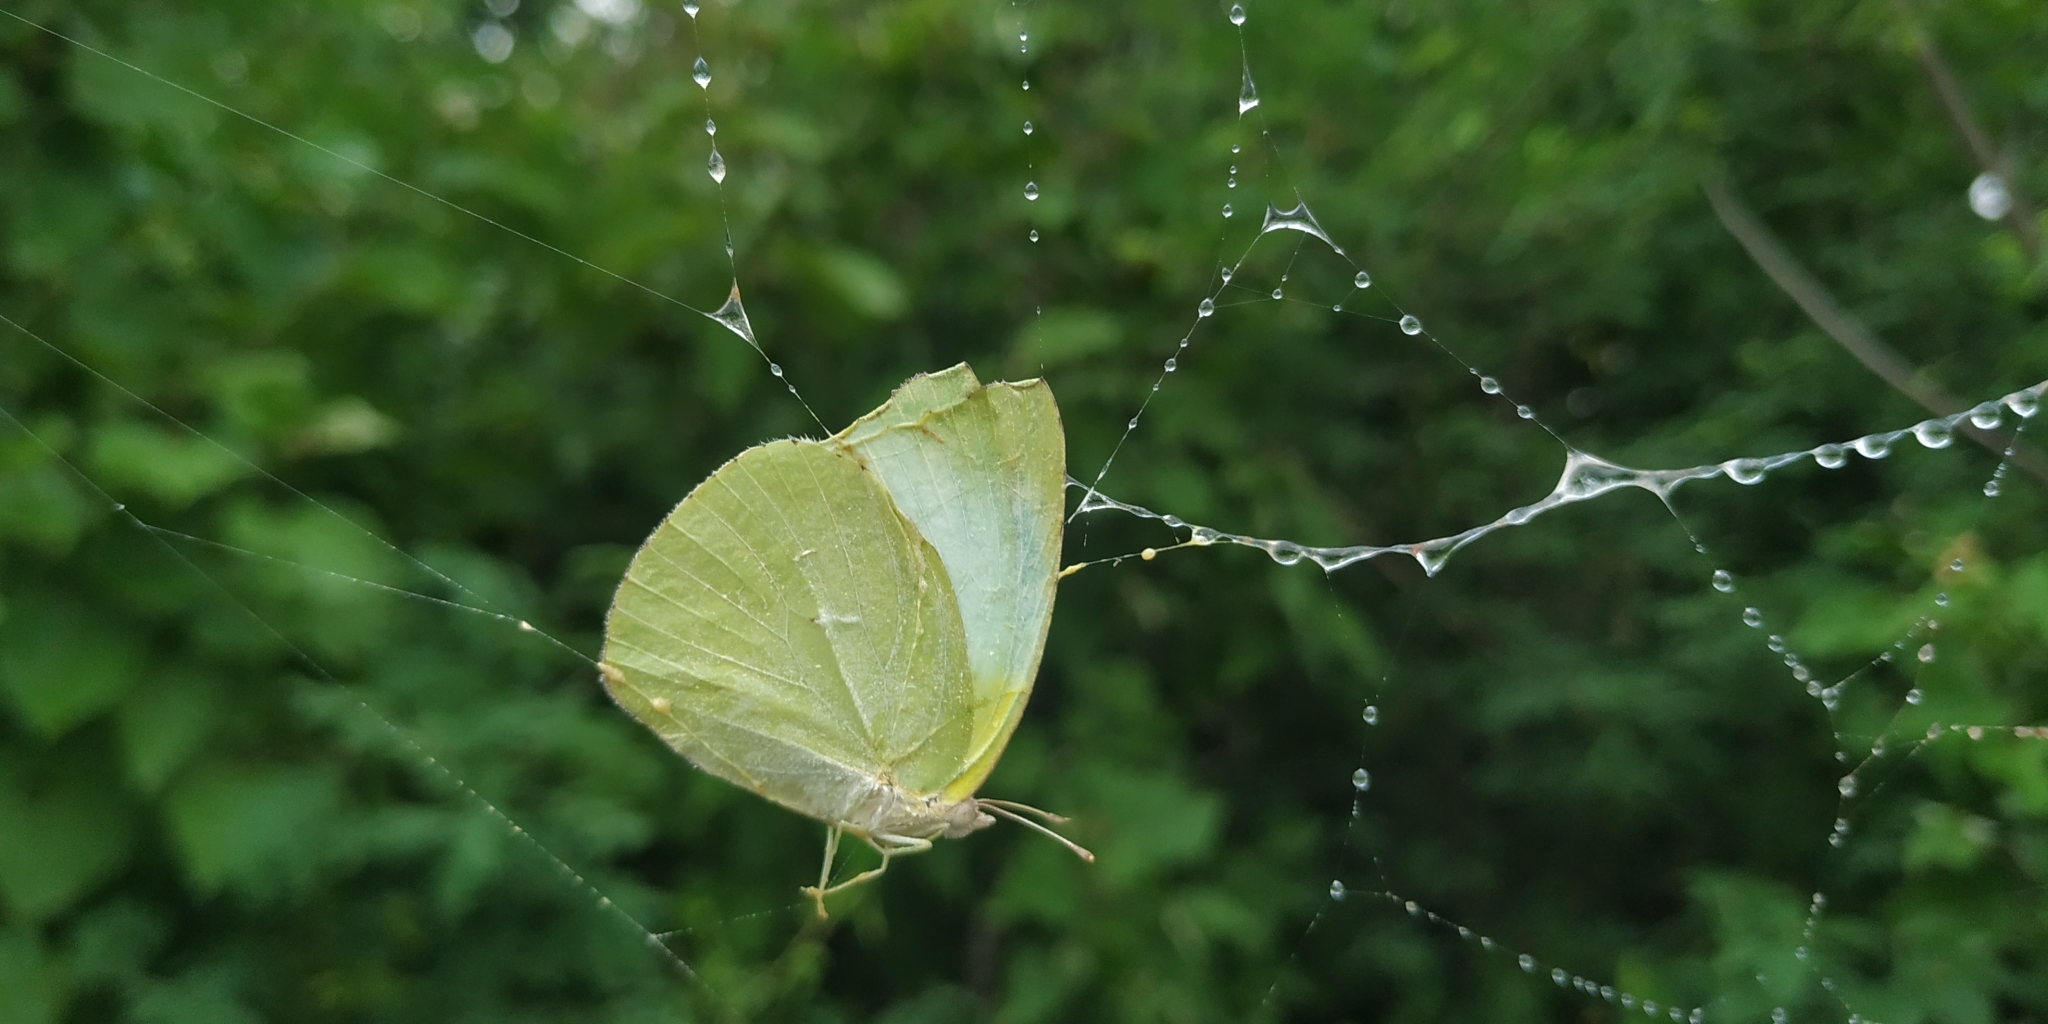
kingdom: Animalia
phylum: Arthropoda
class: Insecta
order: Lepidoptera
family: Pieridae
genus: Kricogonia
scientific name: Kricogonia lyside
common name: Guayacan sulphur,
